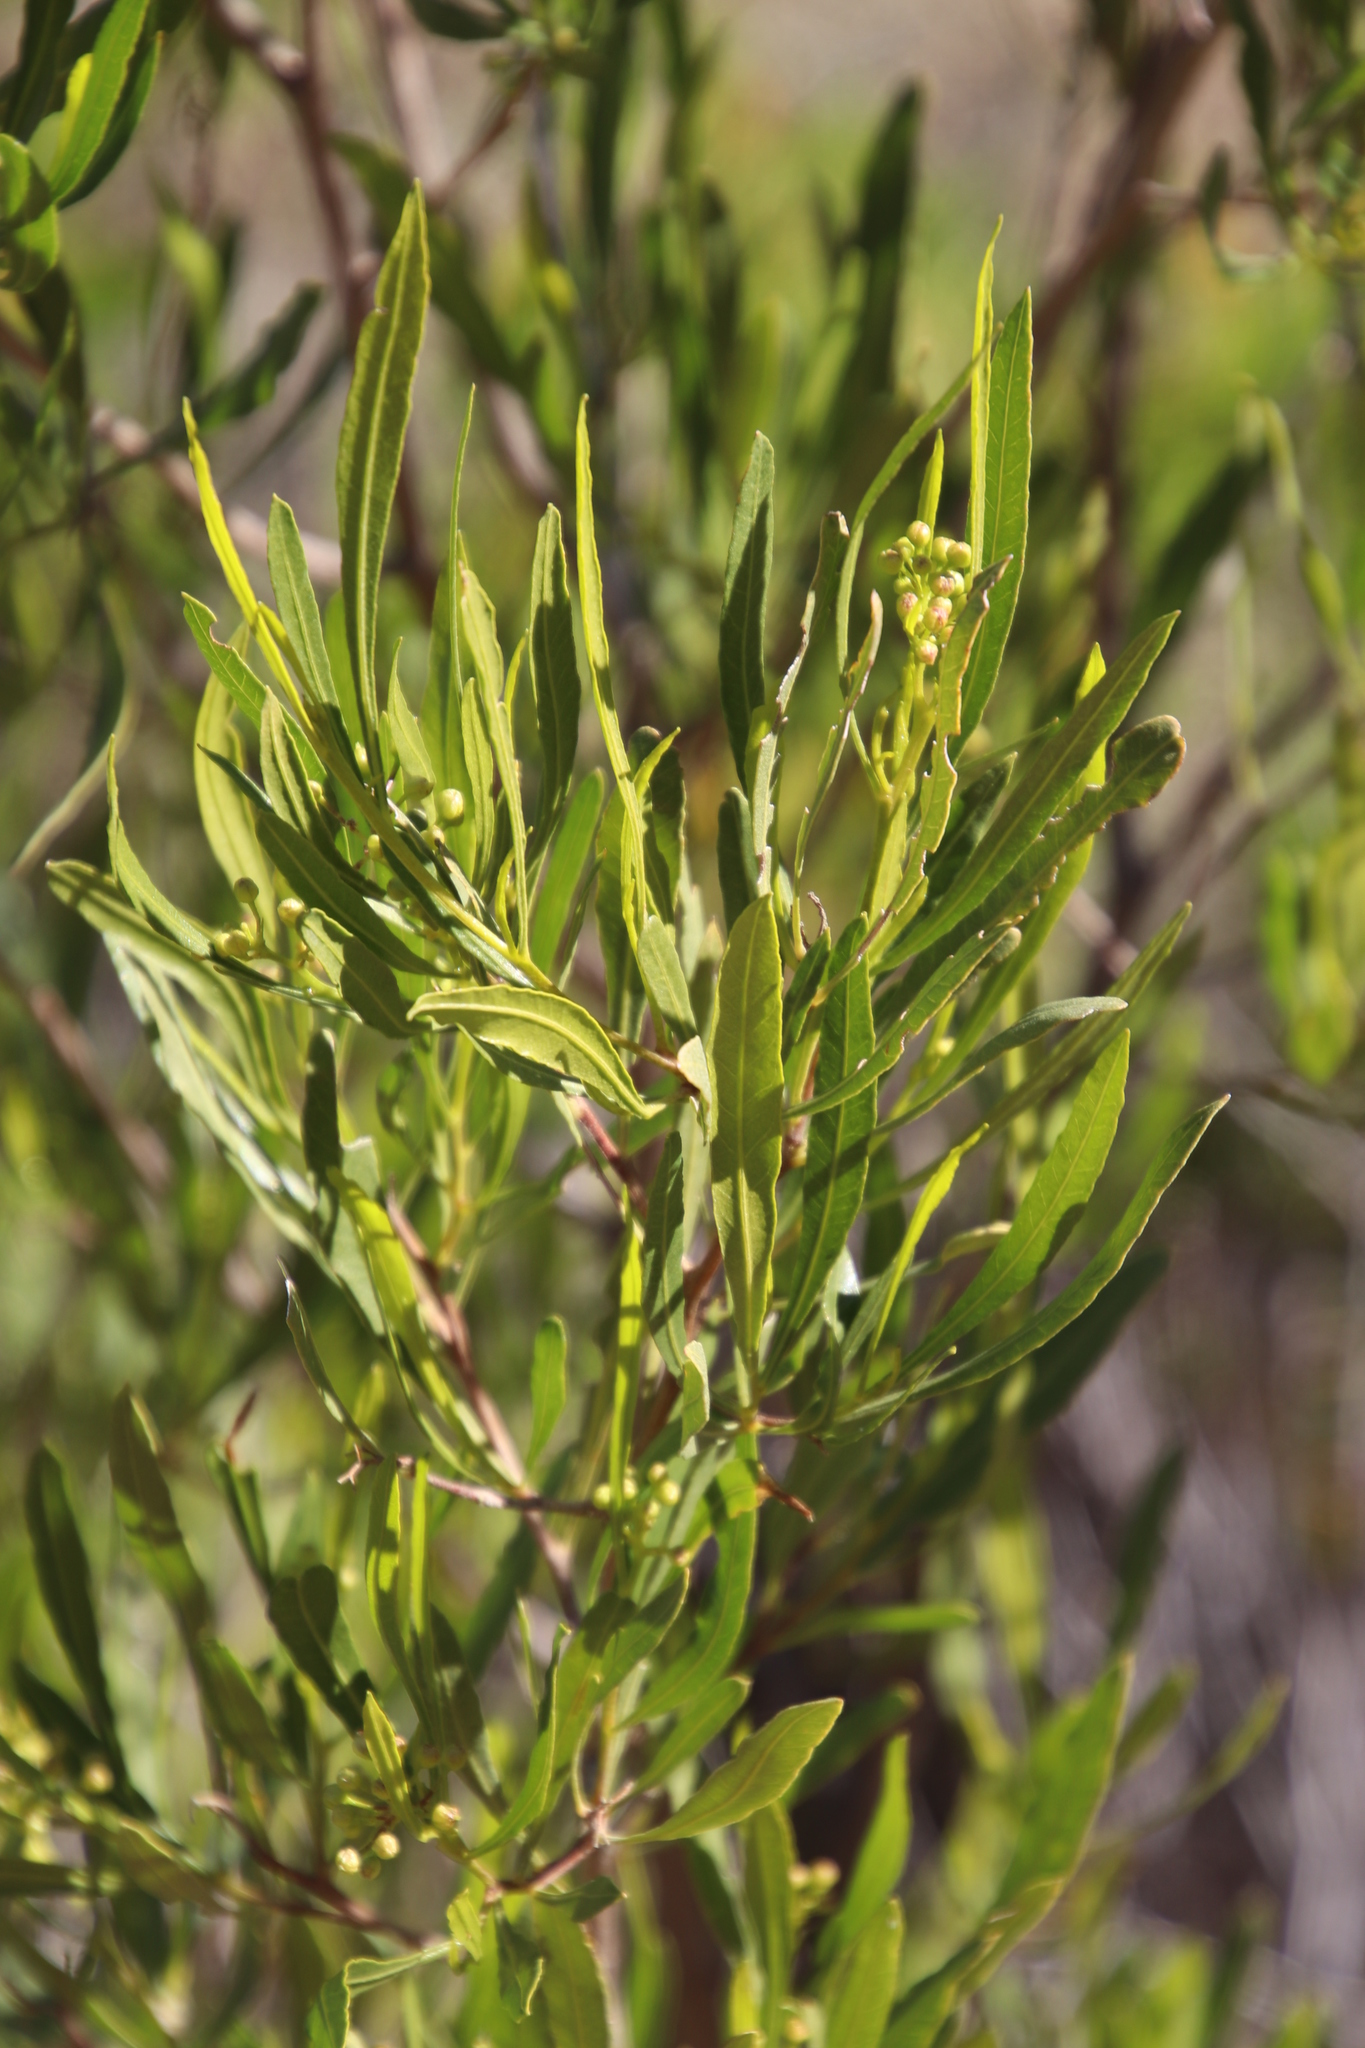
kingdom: Plantae
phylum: Tracheophyta
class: Magnoliopsida
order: Sapindales
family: Sapindaceae
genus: Dodonaea
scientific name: Dodonaea viscosa
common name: Hopbush
